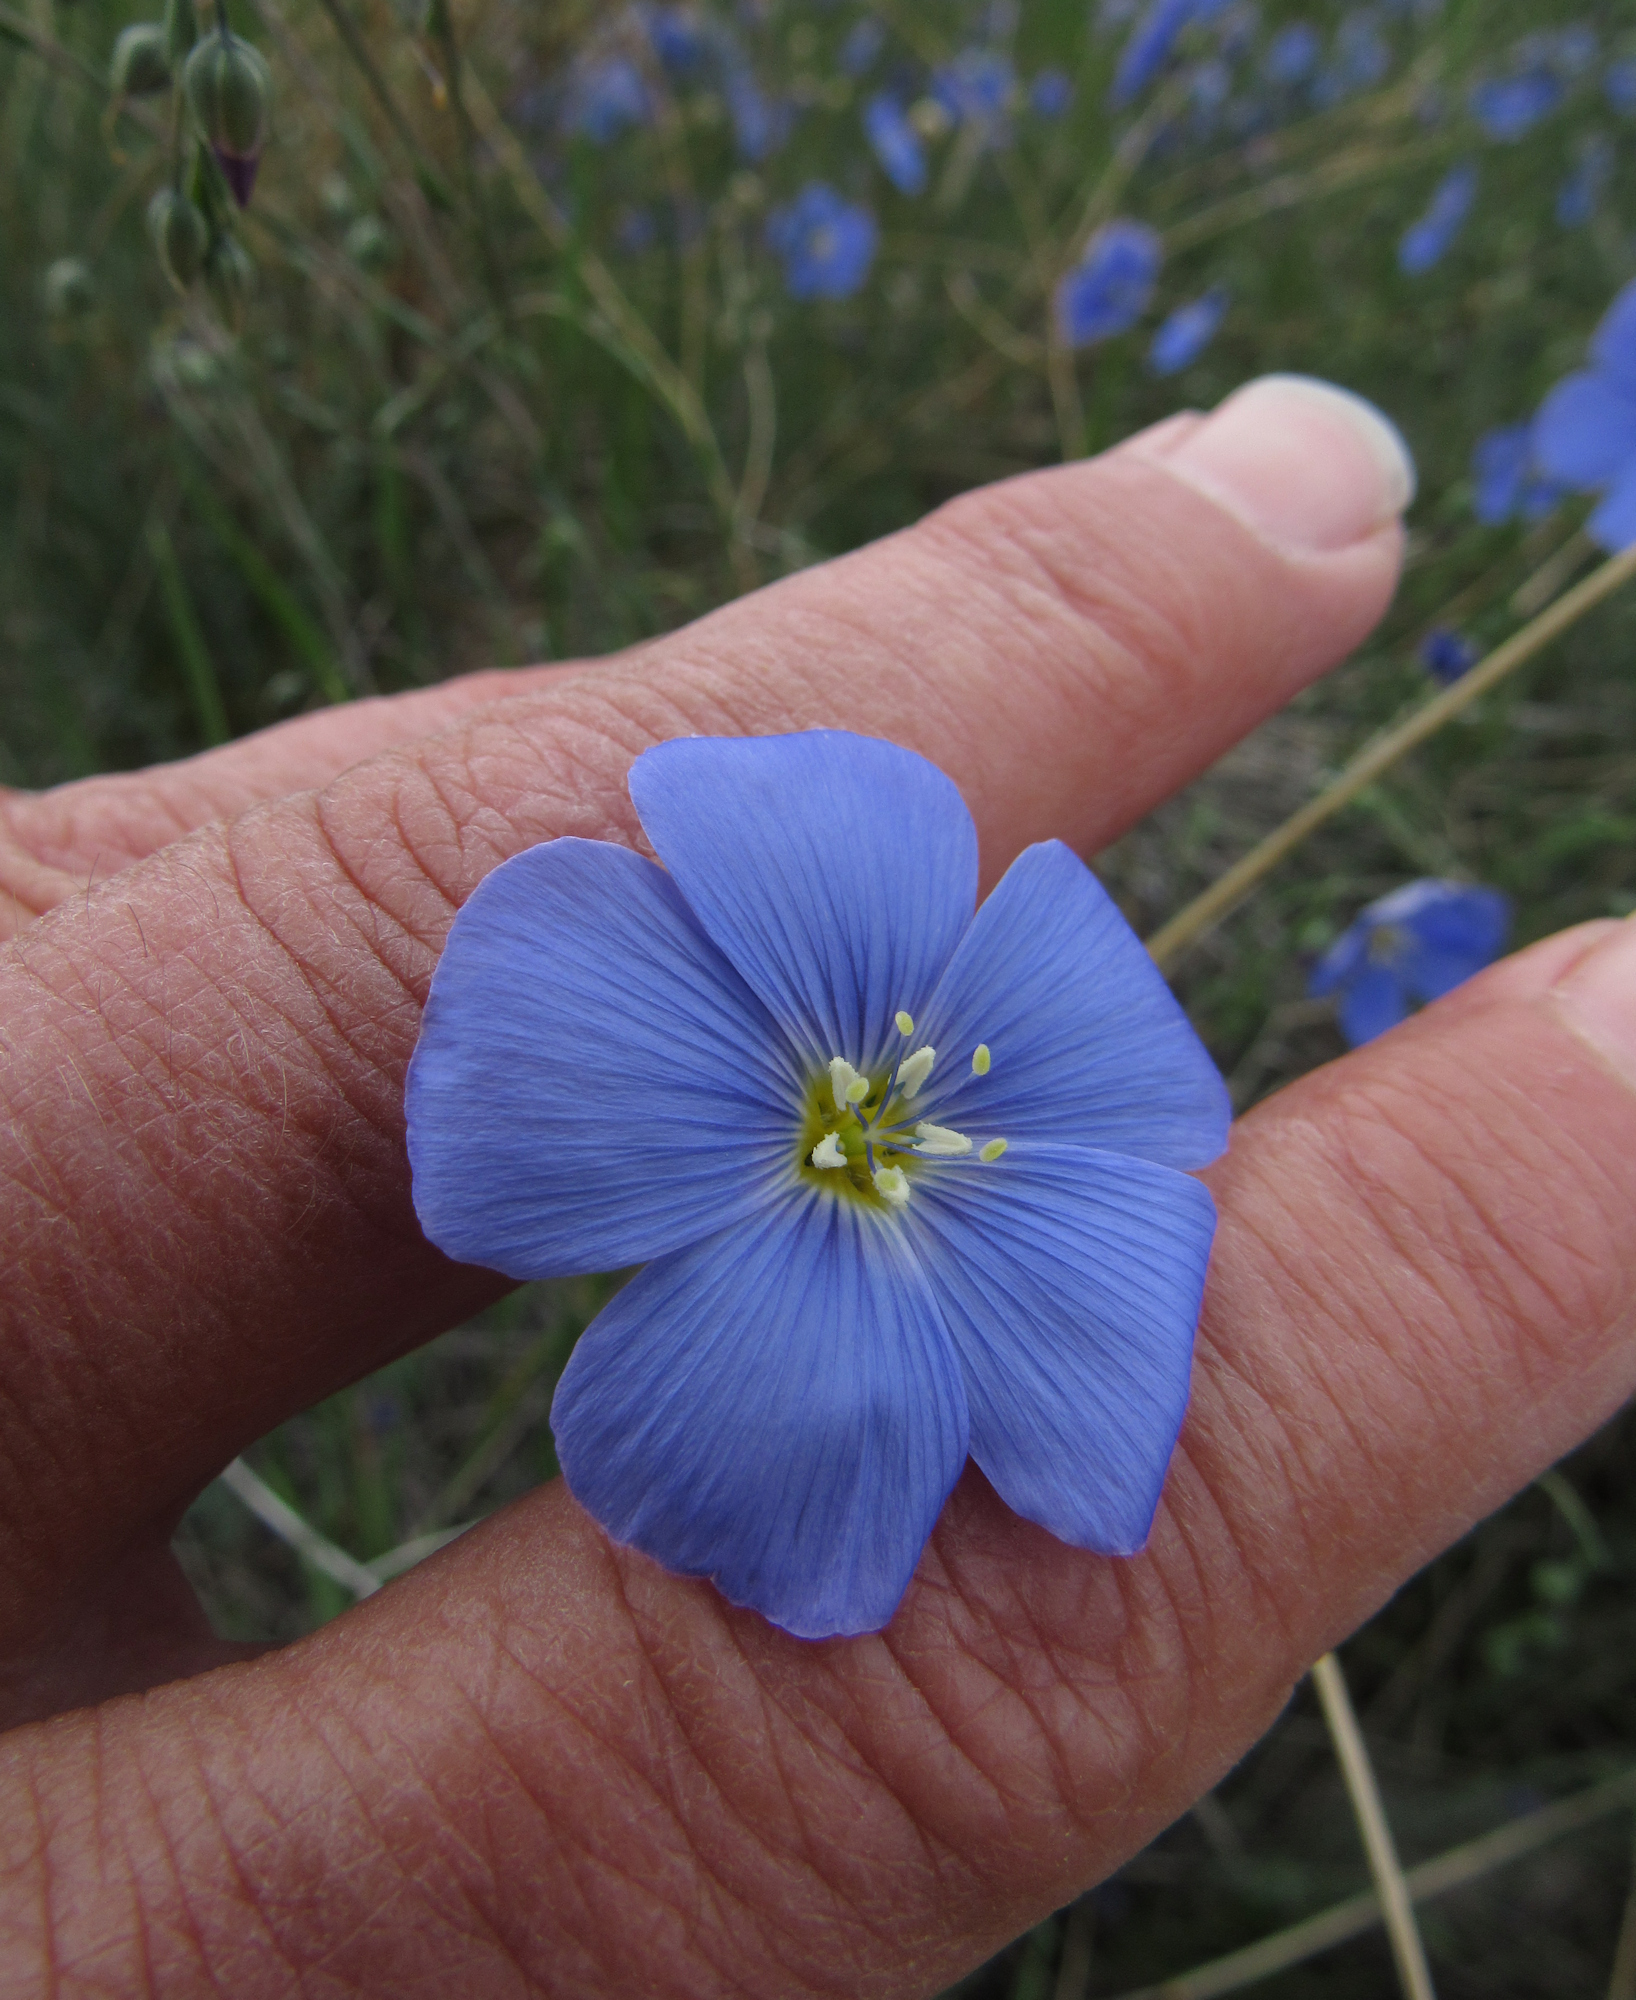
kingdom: Plantae
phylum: Tracheophyta
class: Magnoliopsida
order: Malpighiales
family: Linaceae
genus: Linum
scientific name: Linum lewisii
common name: Prairie flax
